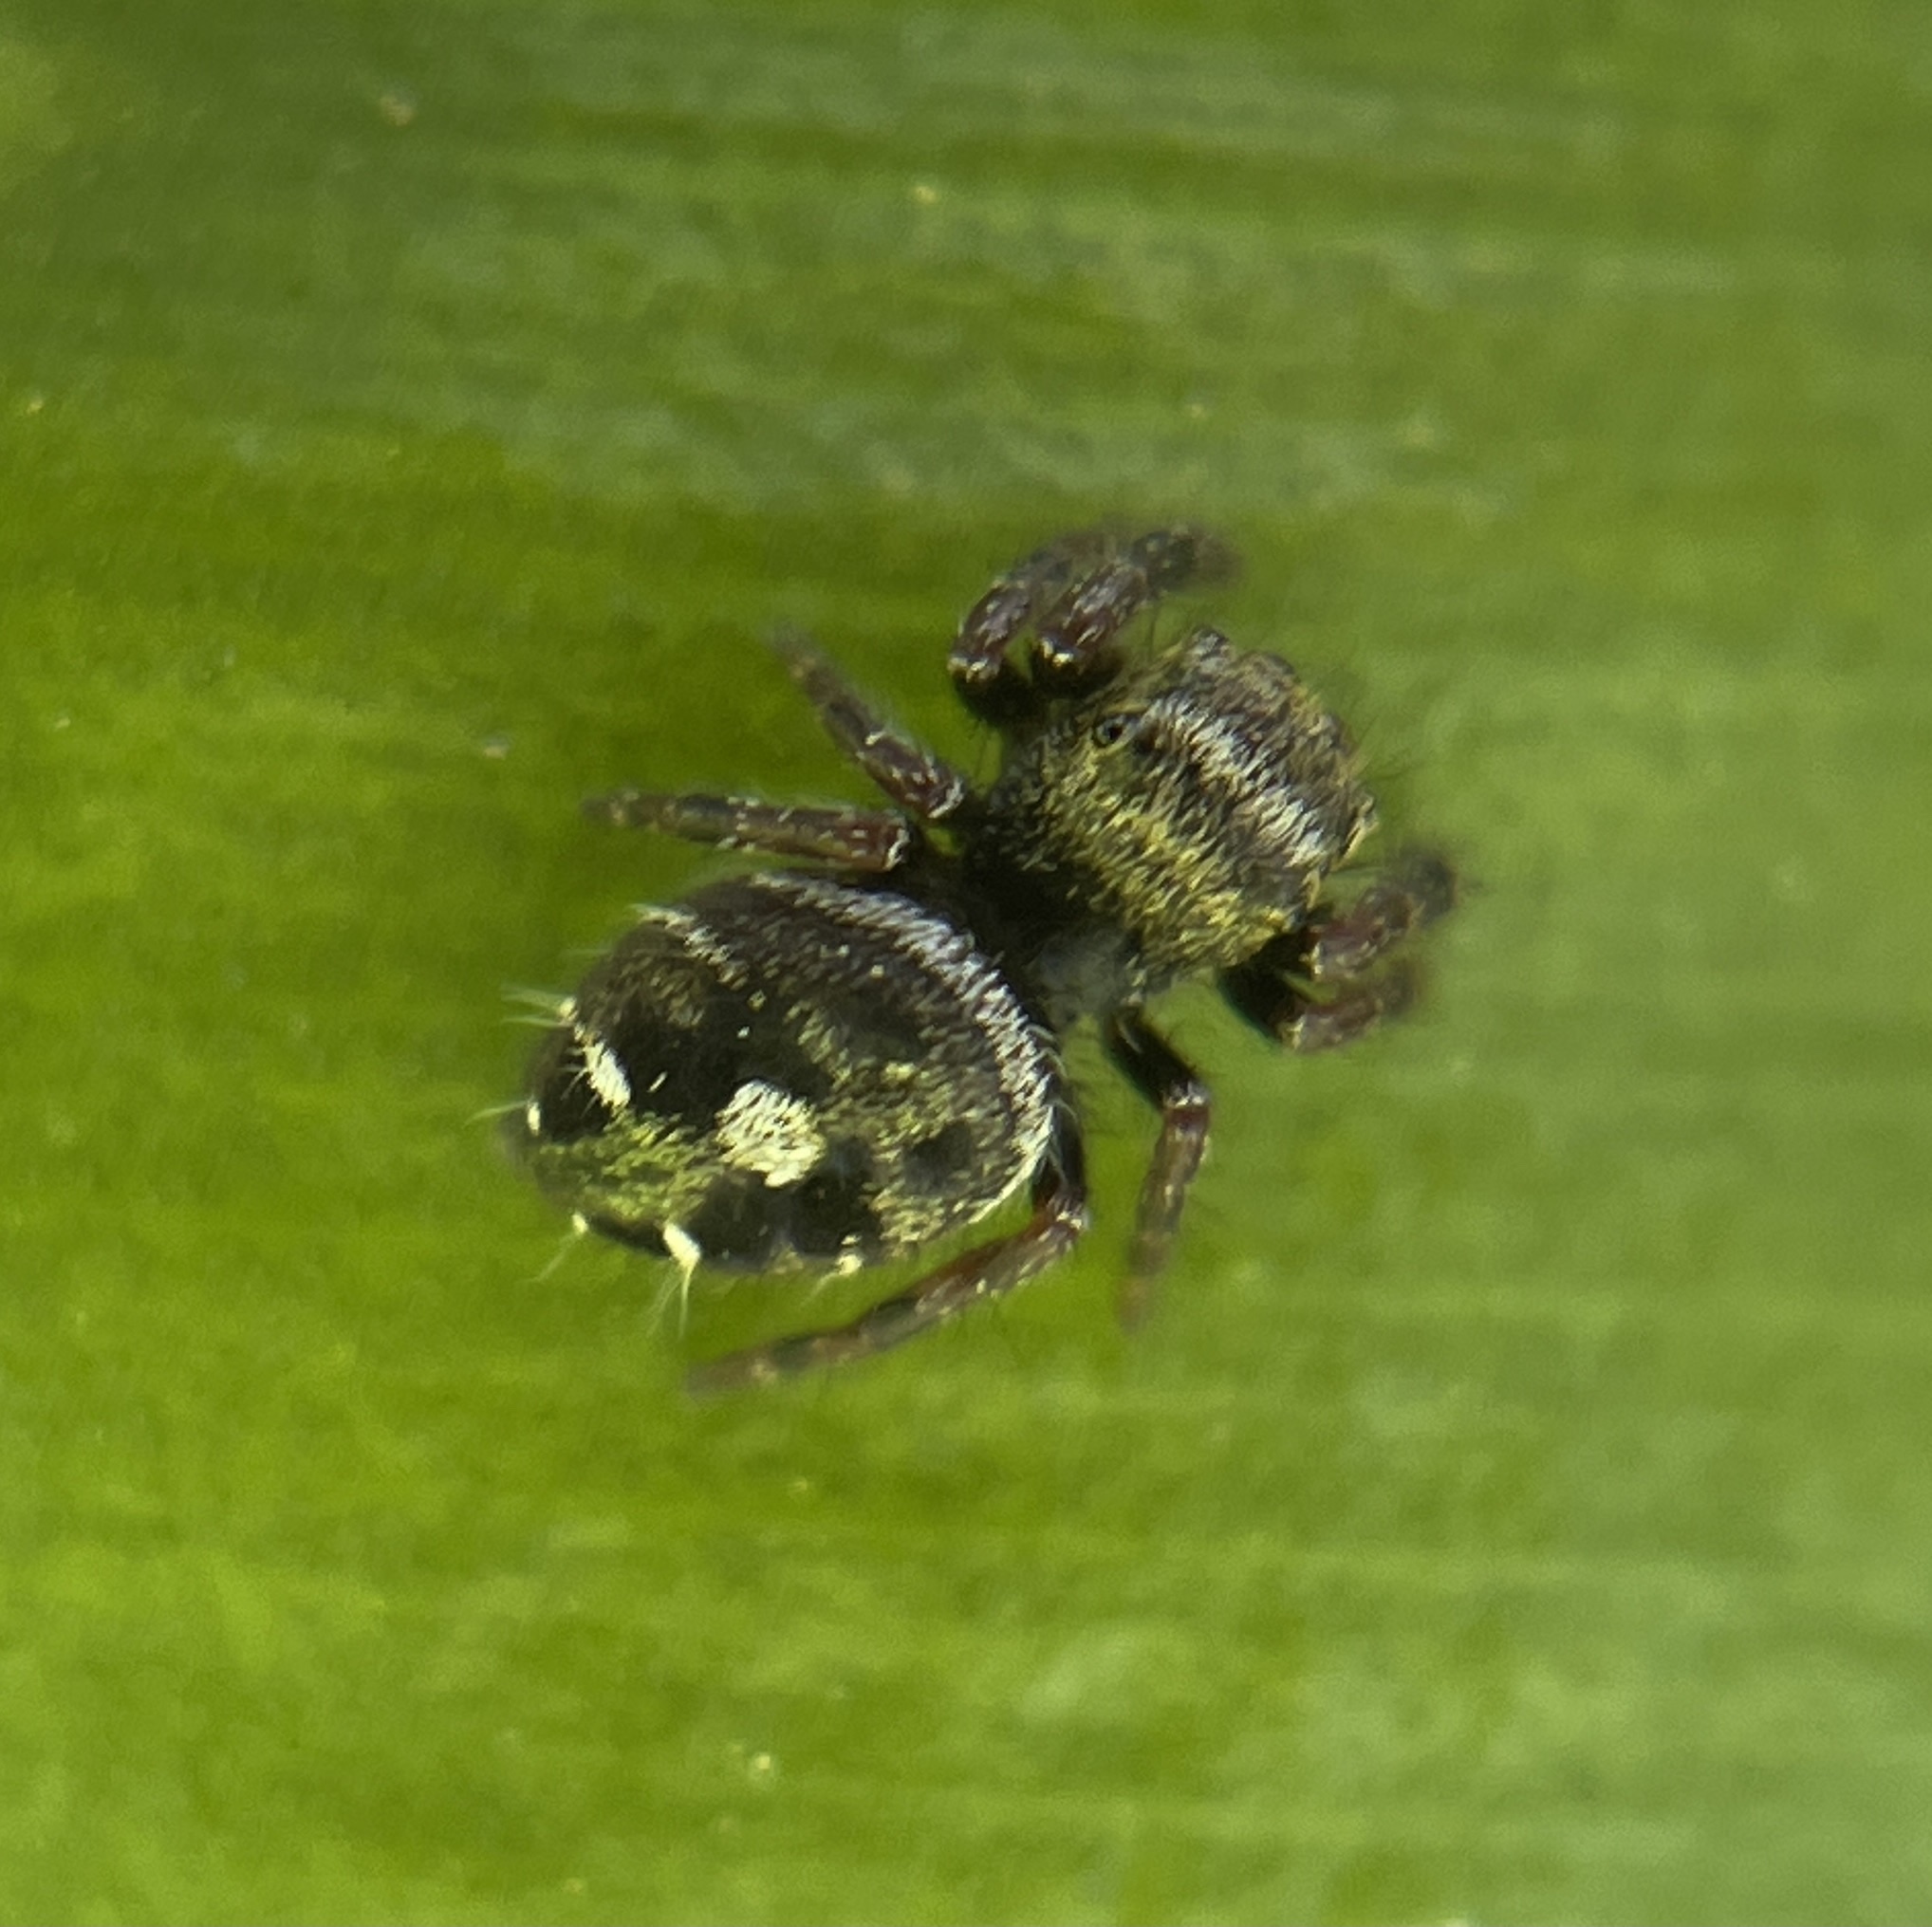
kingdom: Animalia
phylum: Arthropoda
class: Arachnida
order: Araneae
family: Salticidae
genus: Phidippus
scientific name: Phidippus audax
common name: Bold jumper
